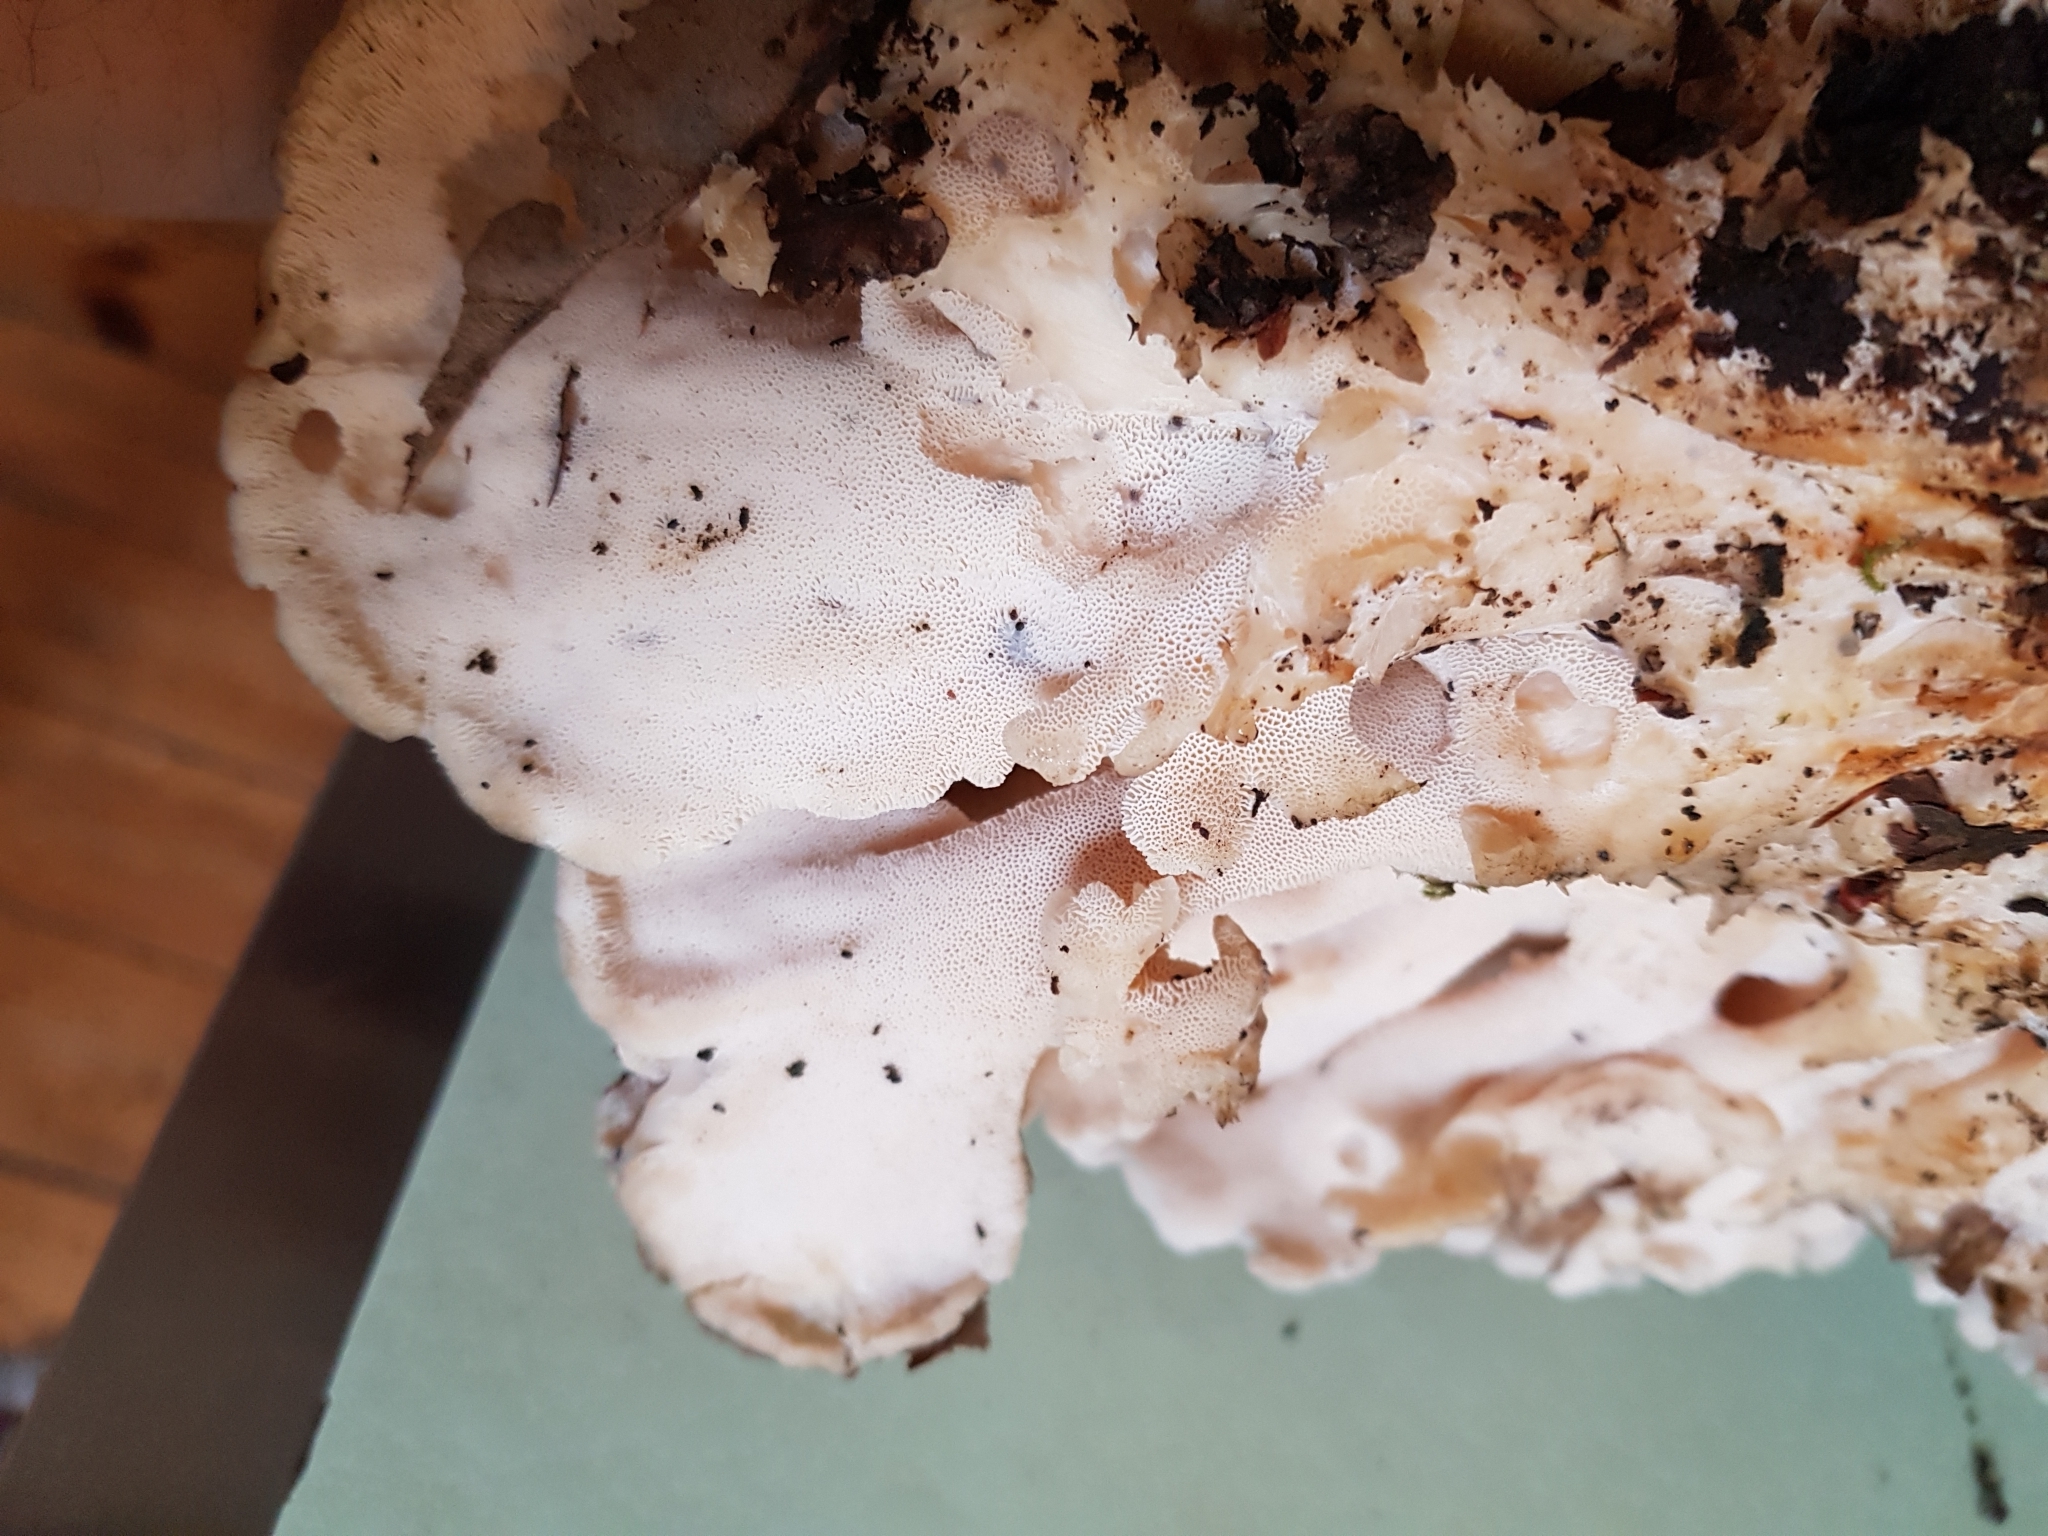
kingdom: Fungi
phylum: Basidiomycota
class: Agaricomycetes
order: Polyporales
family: Grifolaceae
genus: Grifola
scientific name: Grifola frondosa
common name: Hen of the woods
